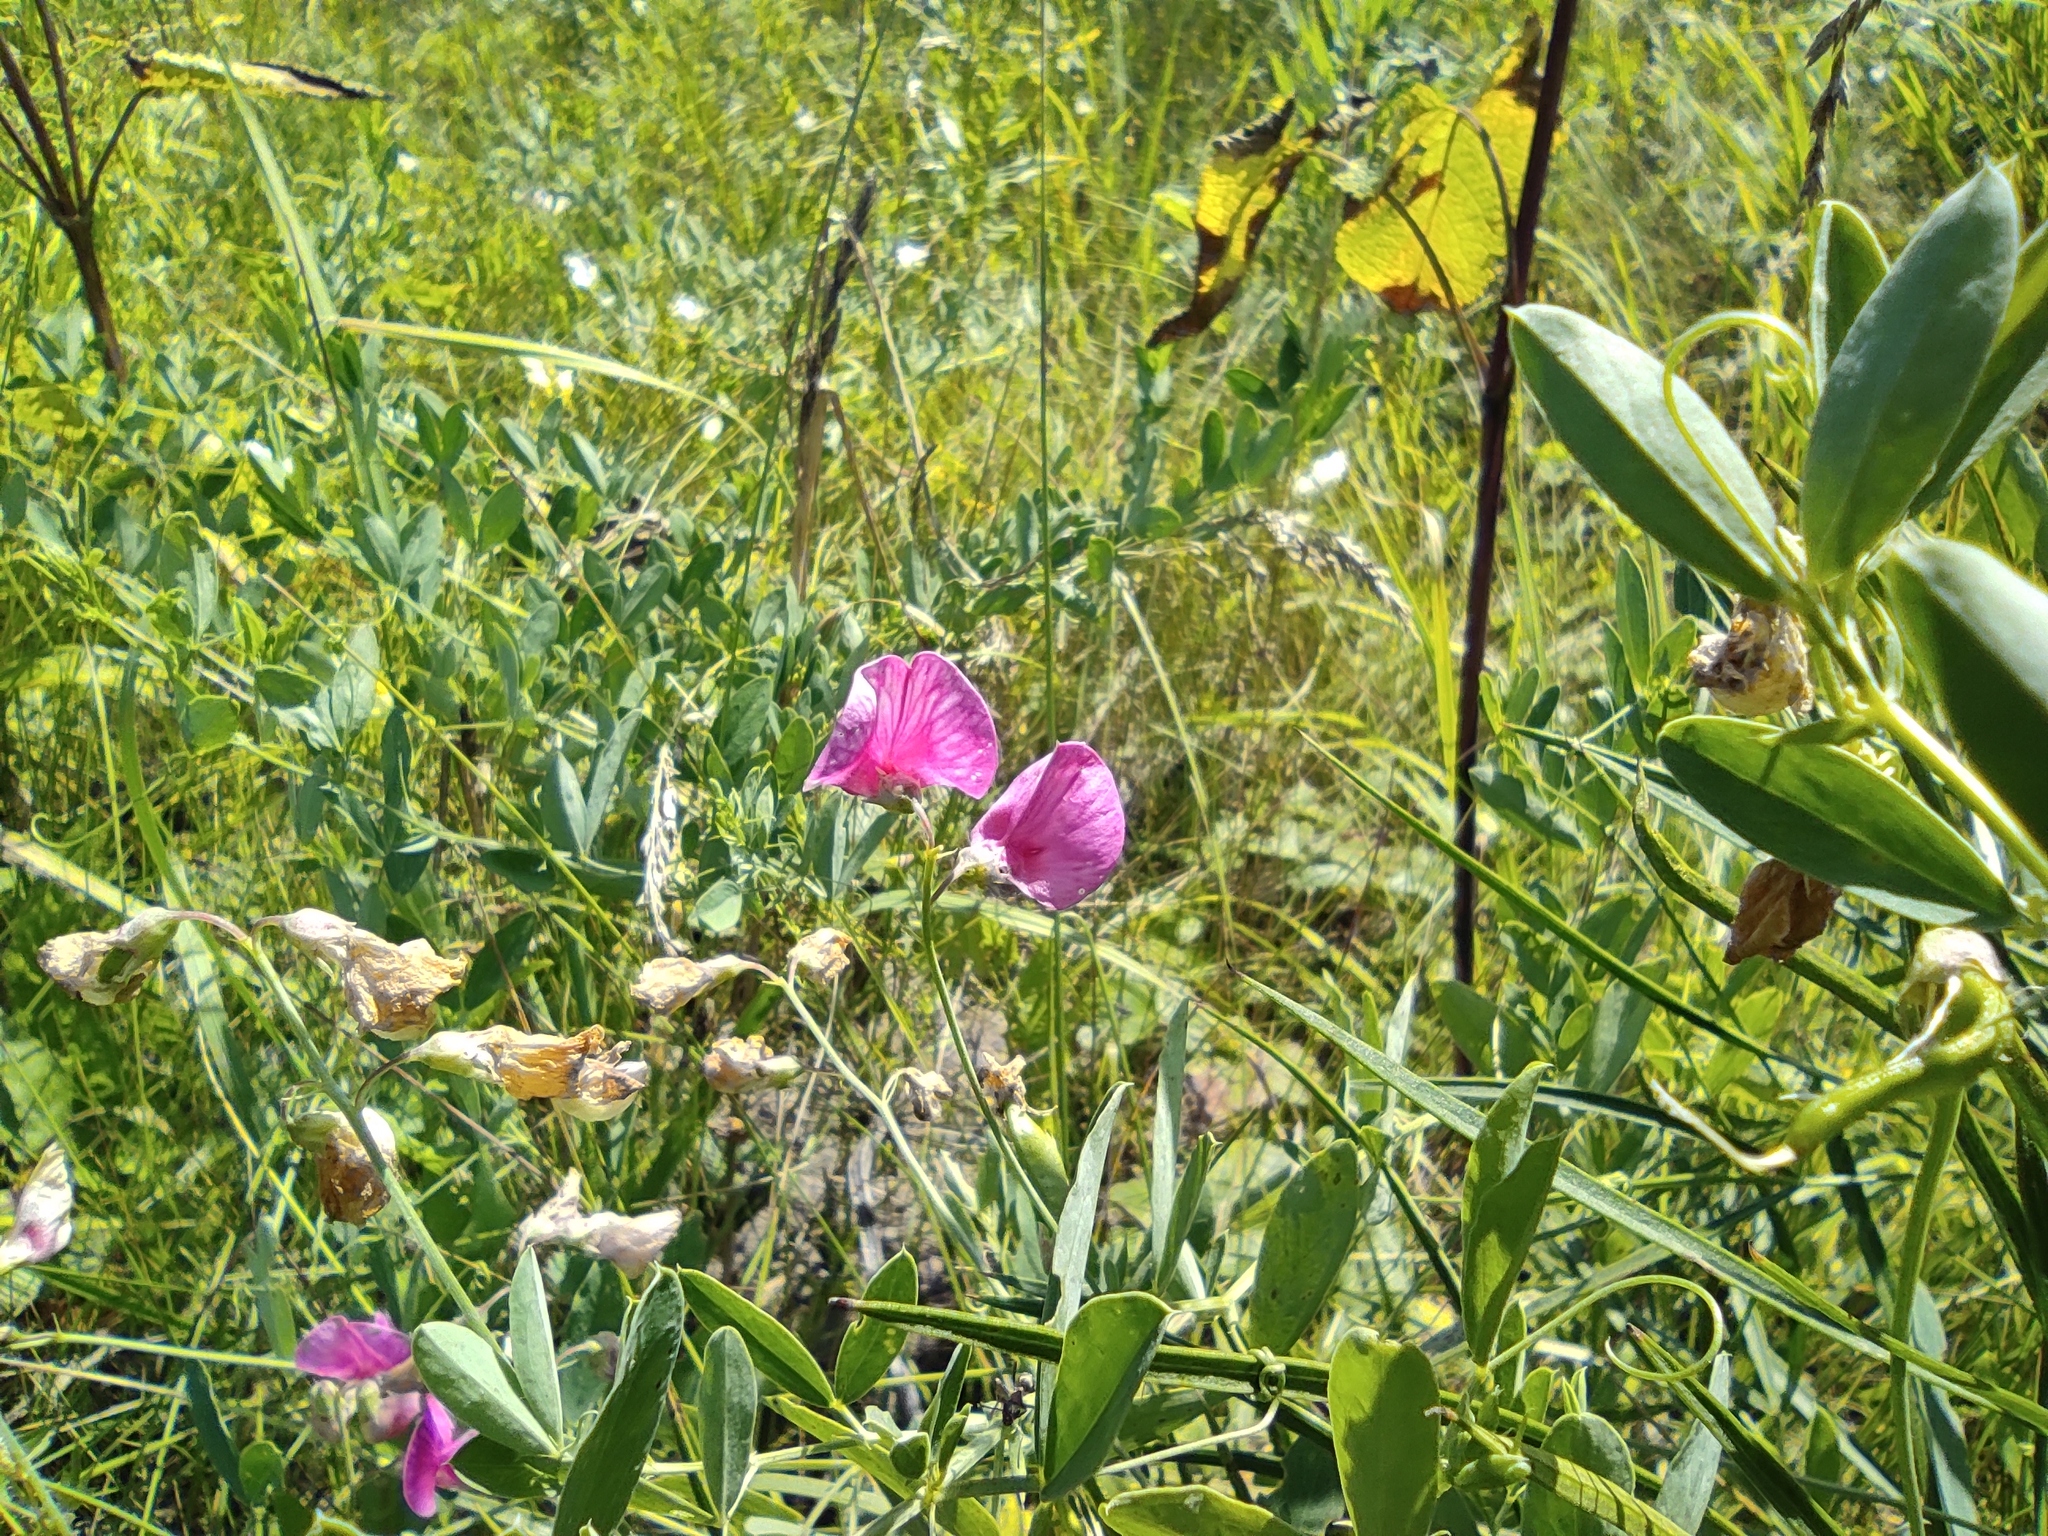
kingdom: Plantae
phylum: Tracheophyta
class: Magnoliopsida
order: Fabales
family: Fabaceae
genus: Lathyrus
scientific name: Lathyrus tuberosus
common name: Tuberous pea
